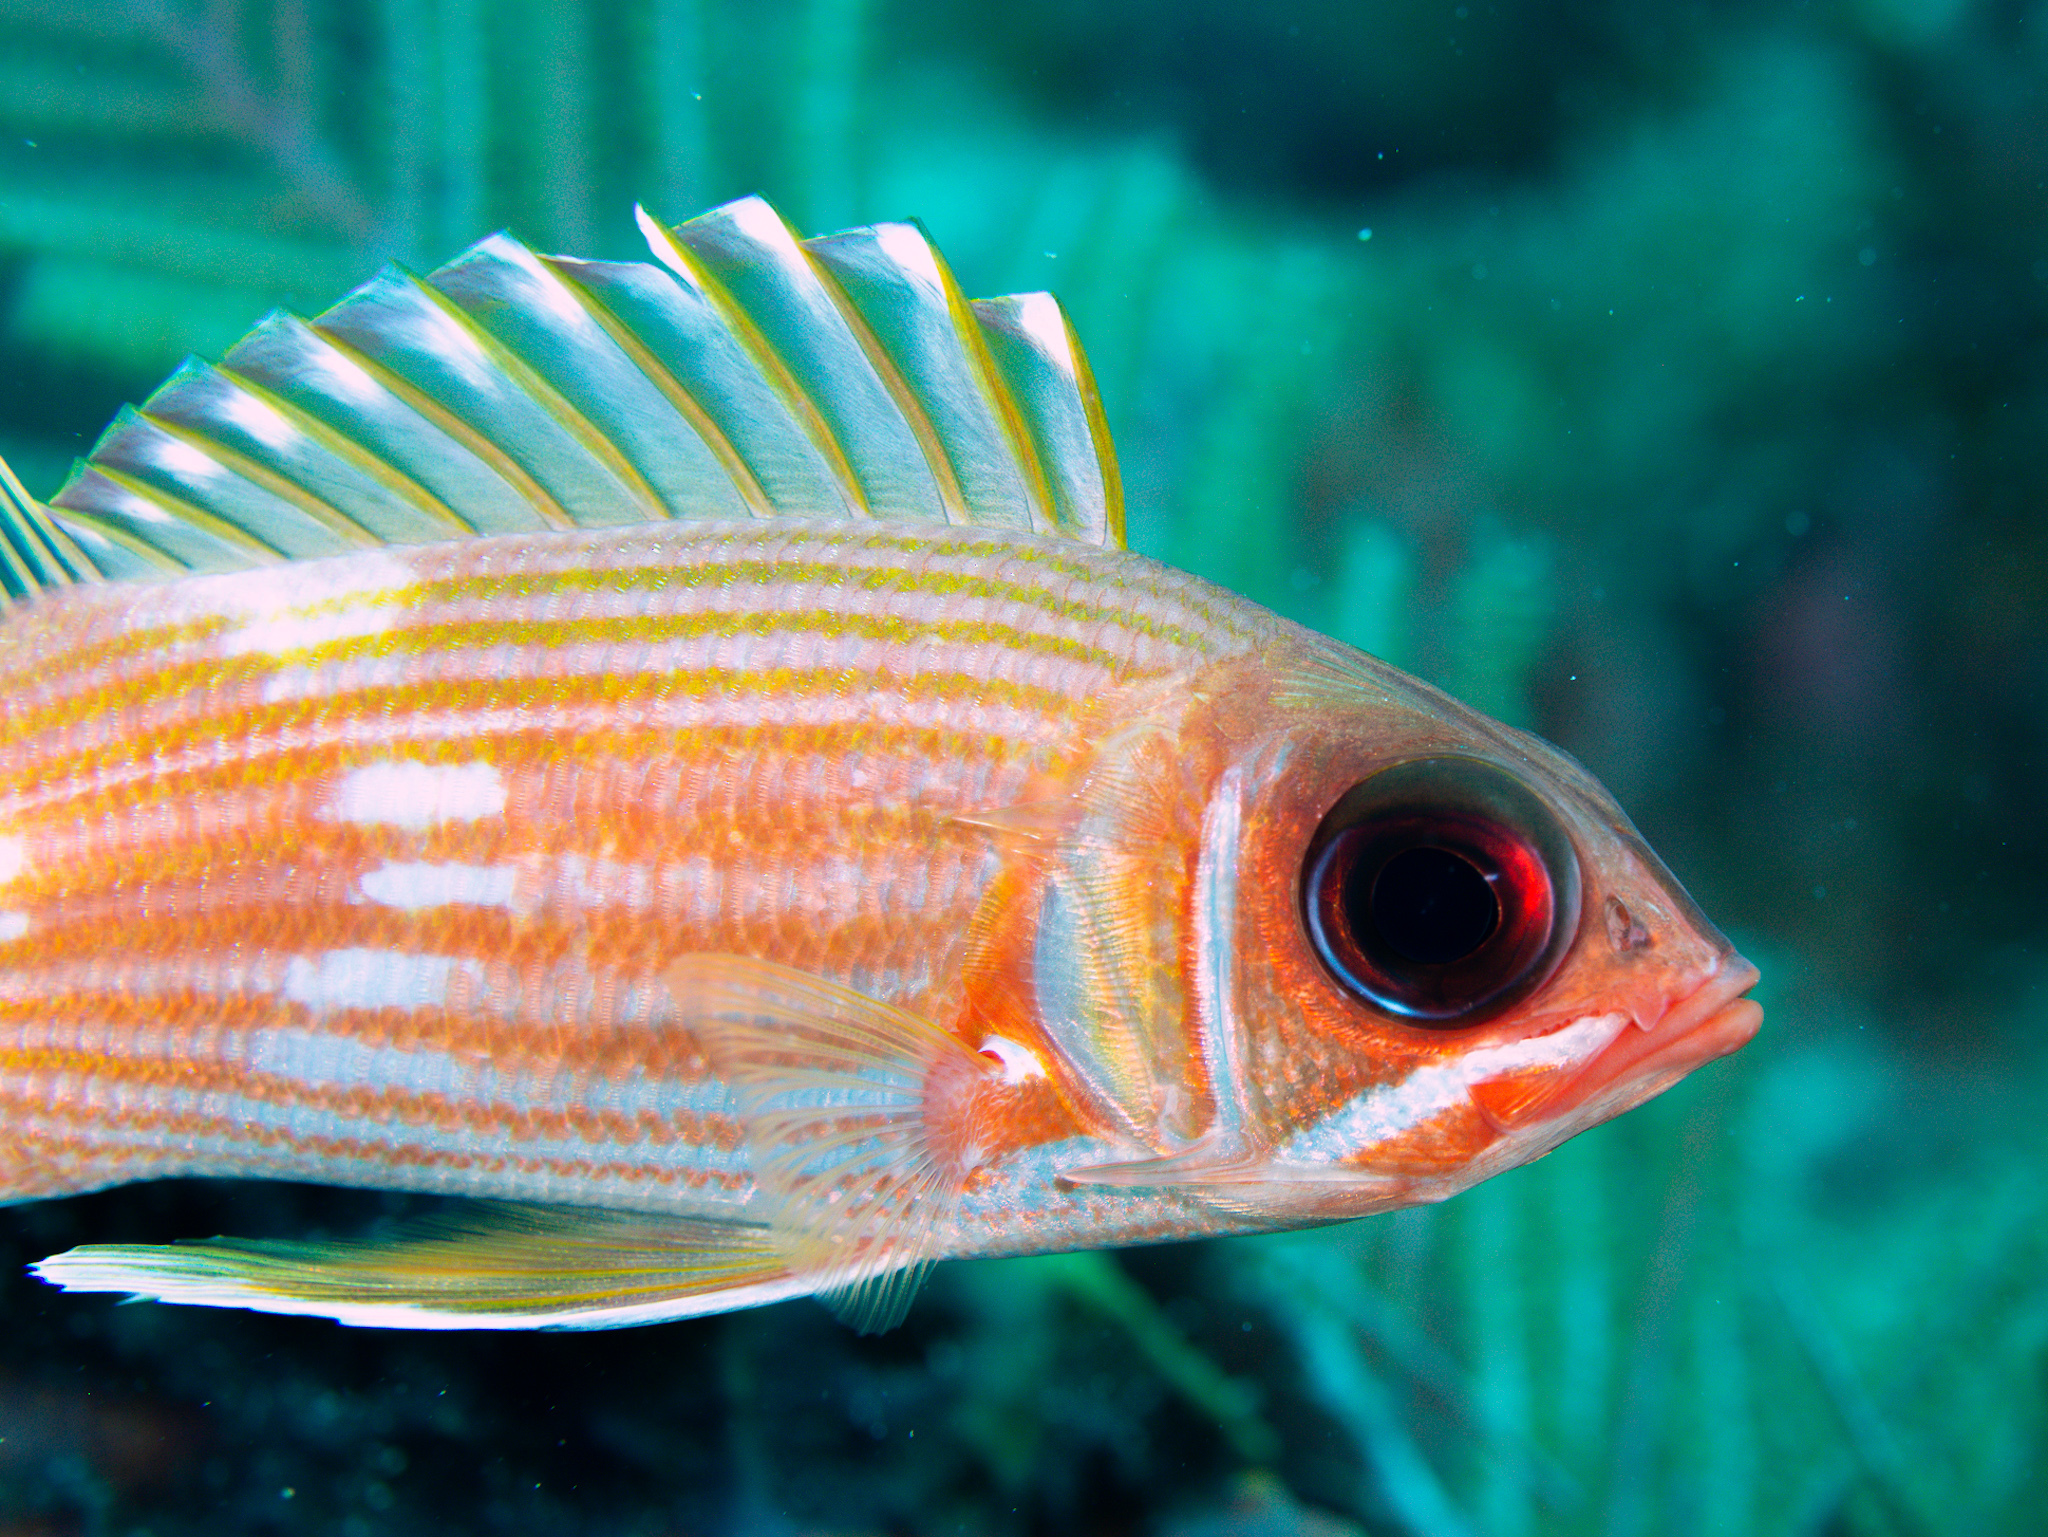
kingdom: Animalia
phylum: Chordata
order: Beryciformes
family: Holocentridae
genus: Holocentrus
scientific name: Holocentrus rufus
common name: Longspine squirrelfish
